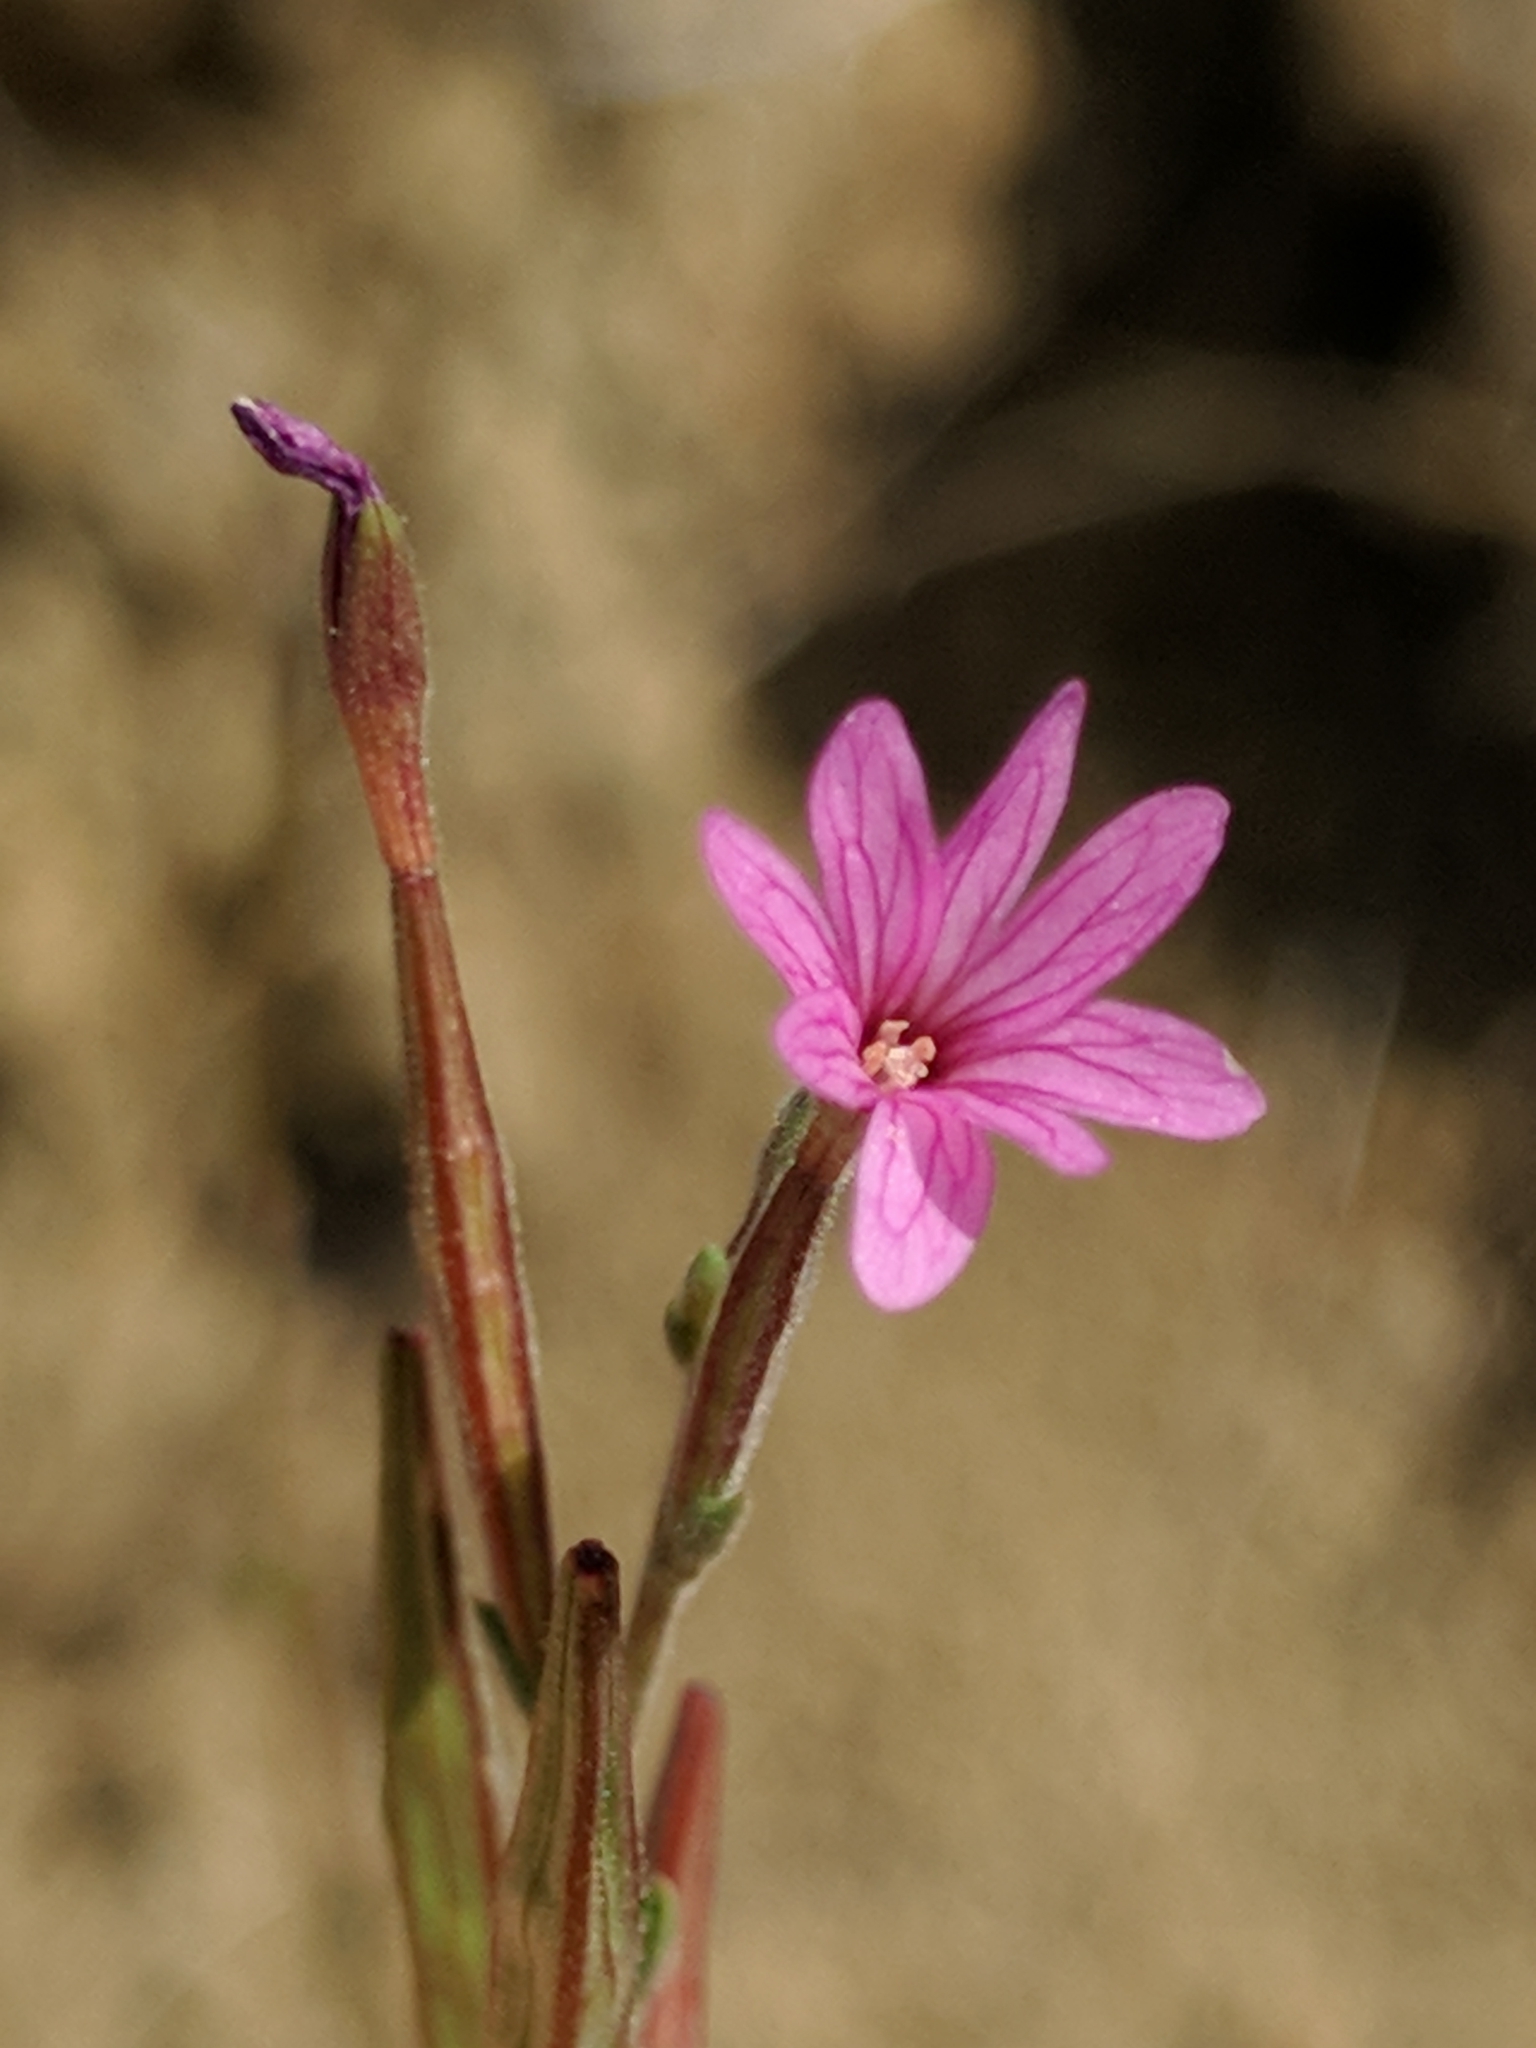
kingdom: Plantae
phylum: Tracheophyta
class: Magnoliopsida
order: Myrtales
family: Onagraceae
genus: Epilobium
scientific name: Epilobium brachycarpum
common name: Annual willowherb
